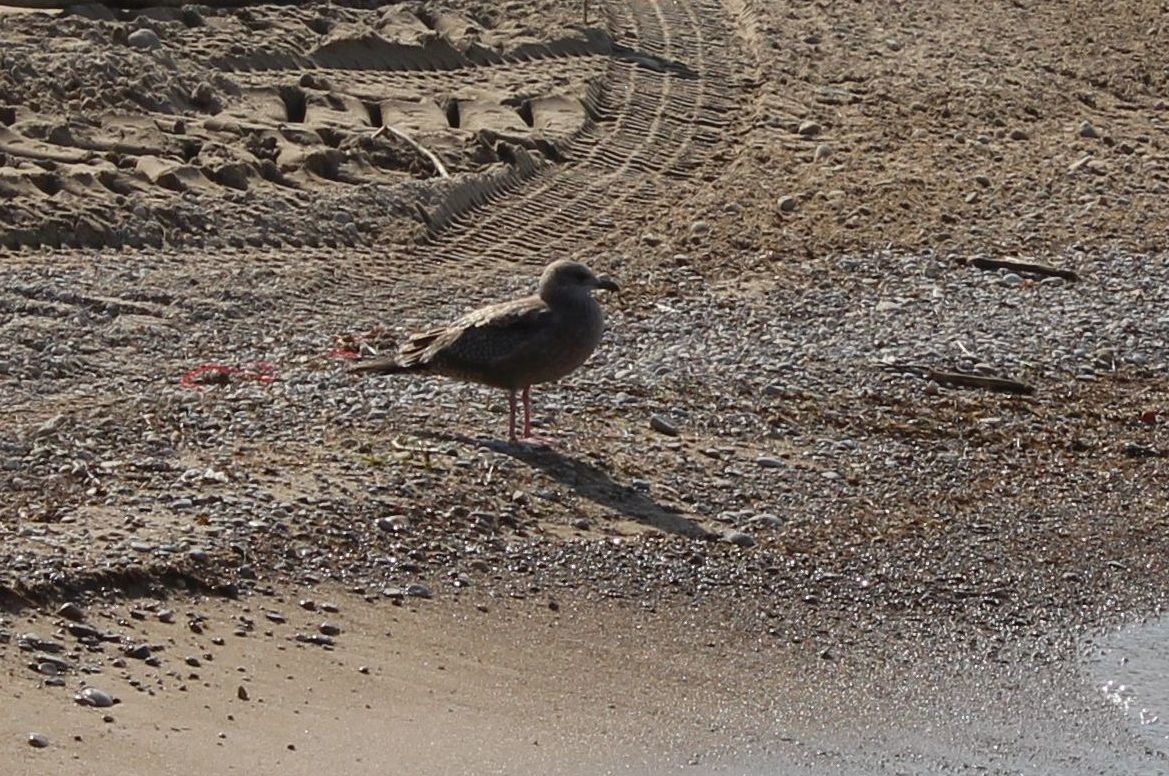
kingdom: Animalia
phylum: Chordata
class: Aves
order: Charadriiformes
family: Laridae
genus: Larus
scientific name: Larus argentatus
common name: Herring gull
